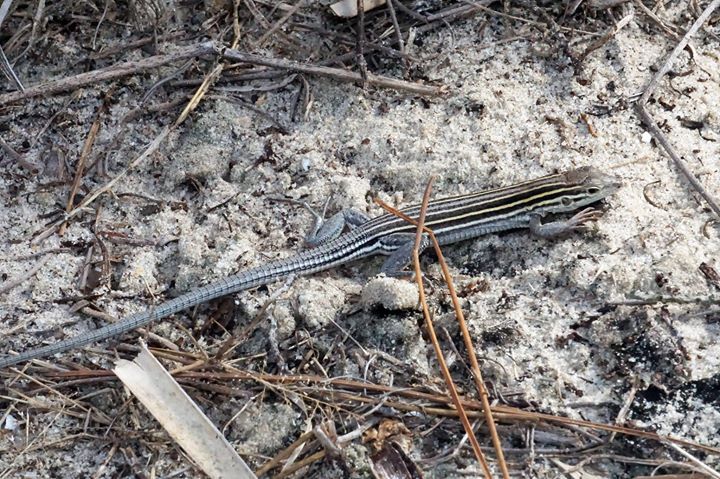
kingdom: Animalia
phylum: Chordata
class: Squamata
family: Teiidae
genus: Aspidoscelis
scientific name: Aspidoscelis sexlineatus
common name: Six-lined racerunner
